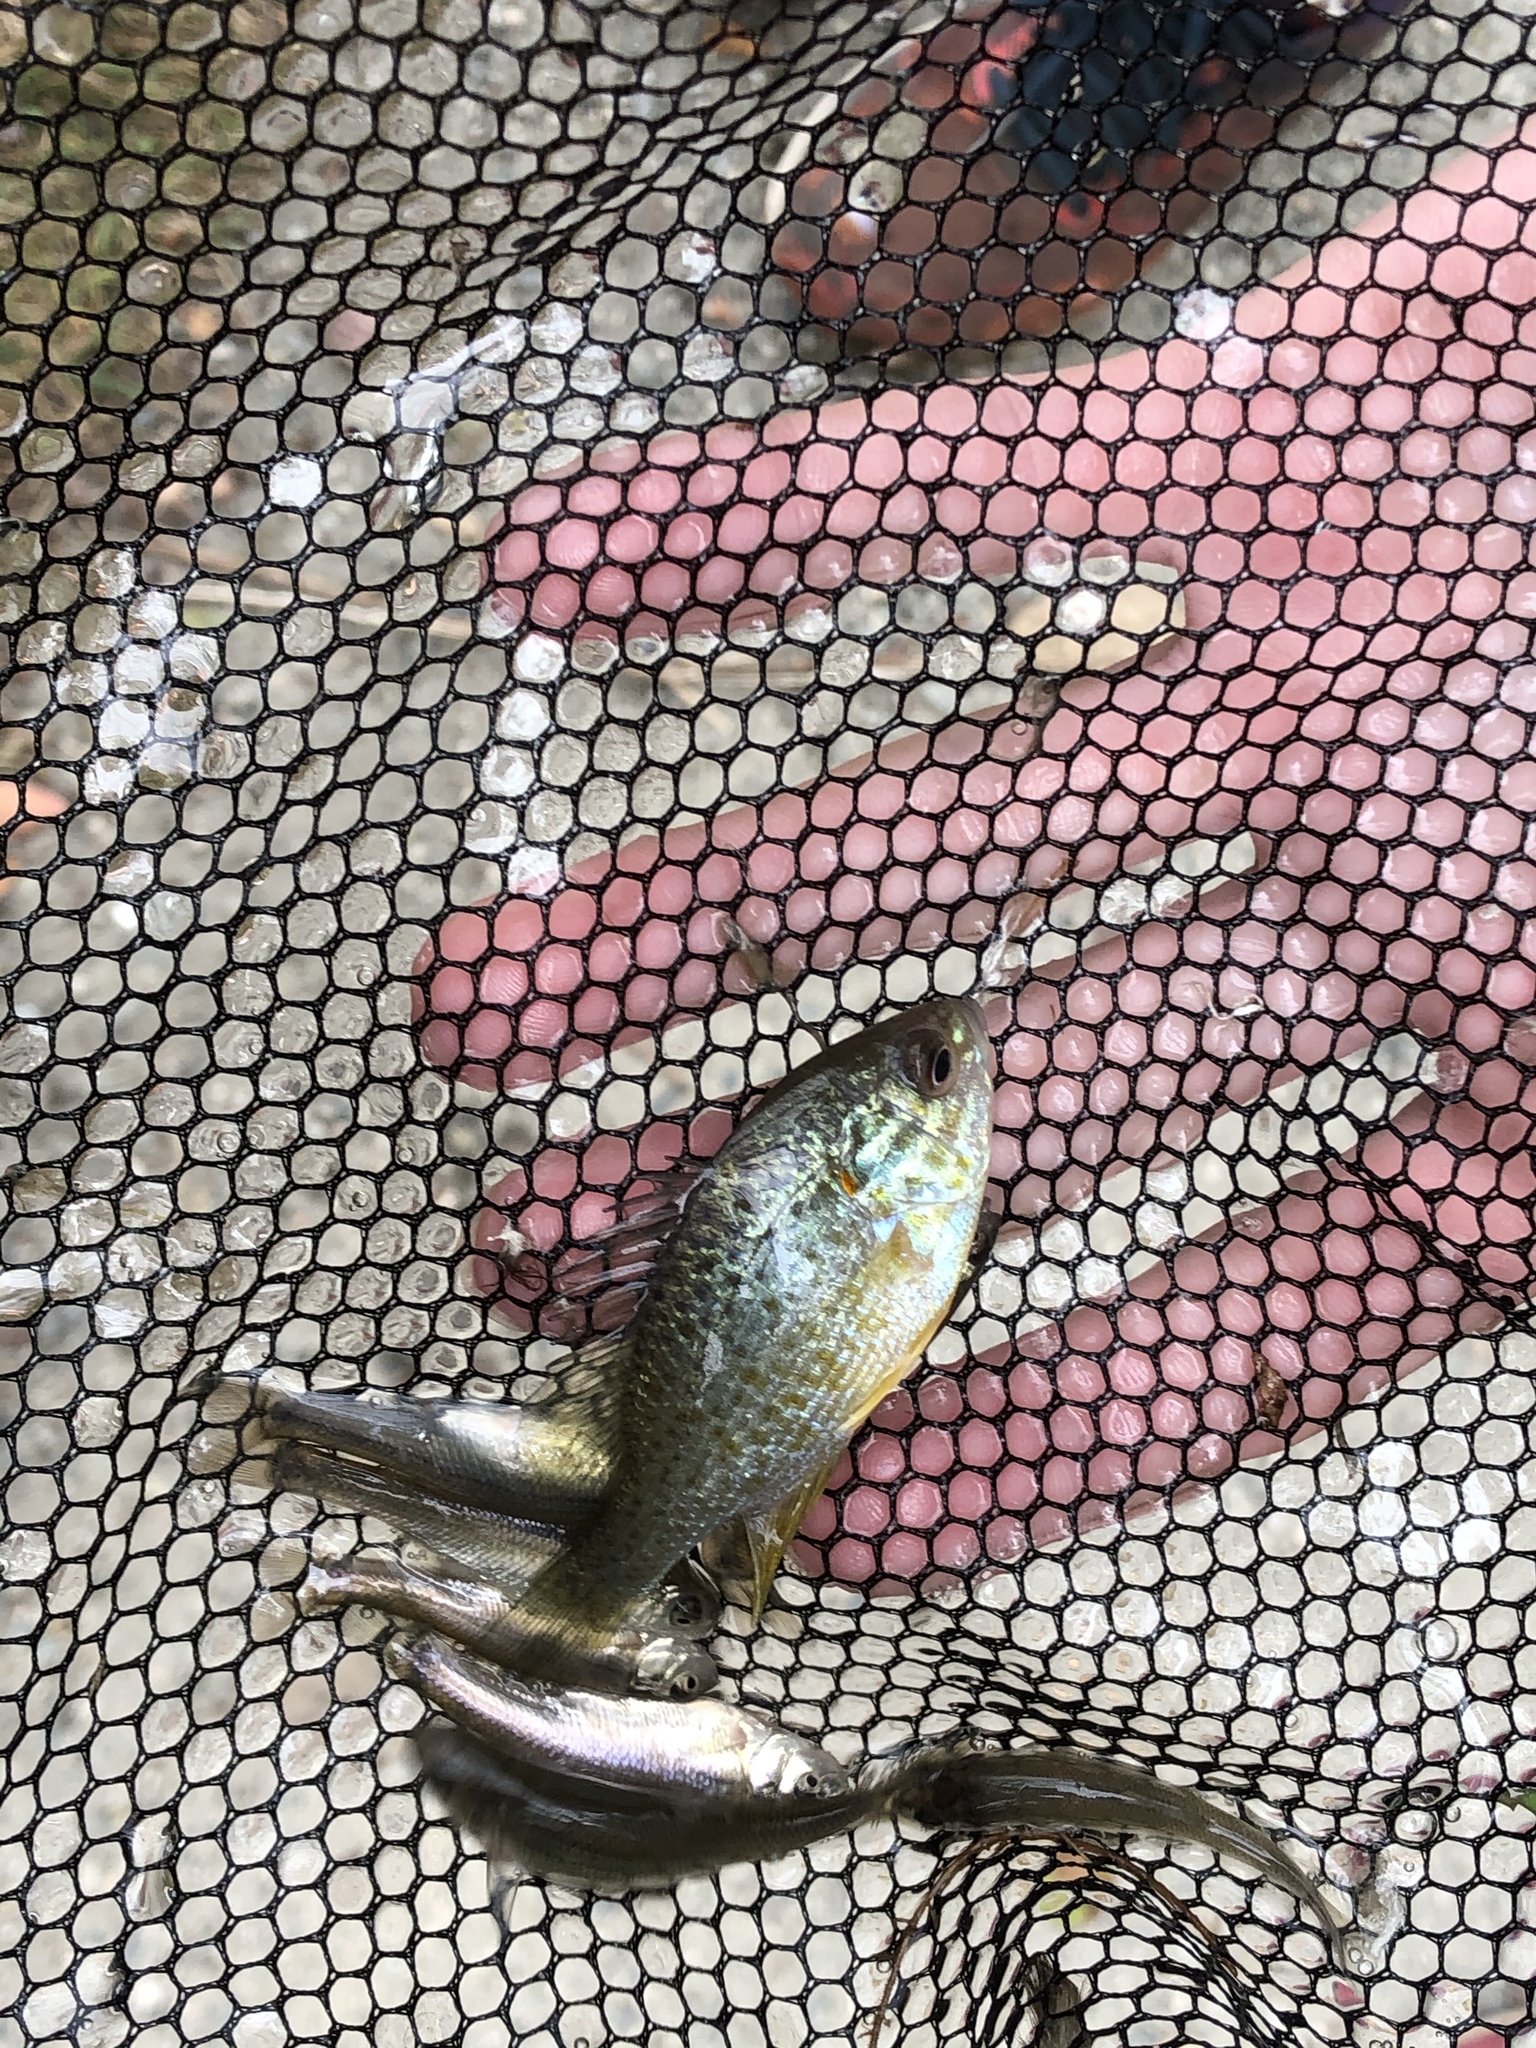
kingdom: Animalia
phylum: Chordata
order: Perciformes
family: Centrarchidae
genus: Lepomis
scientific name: Lepomis gibbosus
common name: Pumpkinseed
